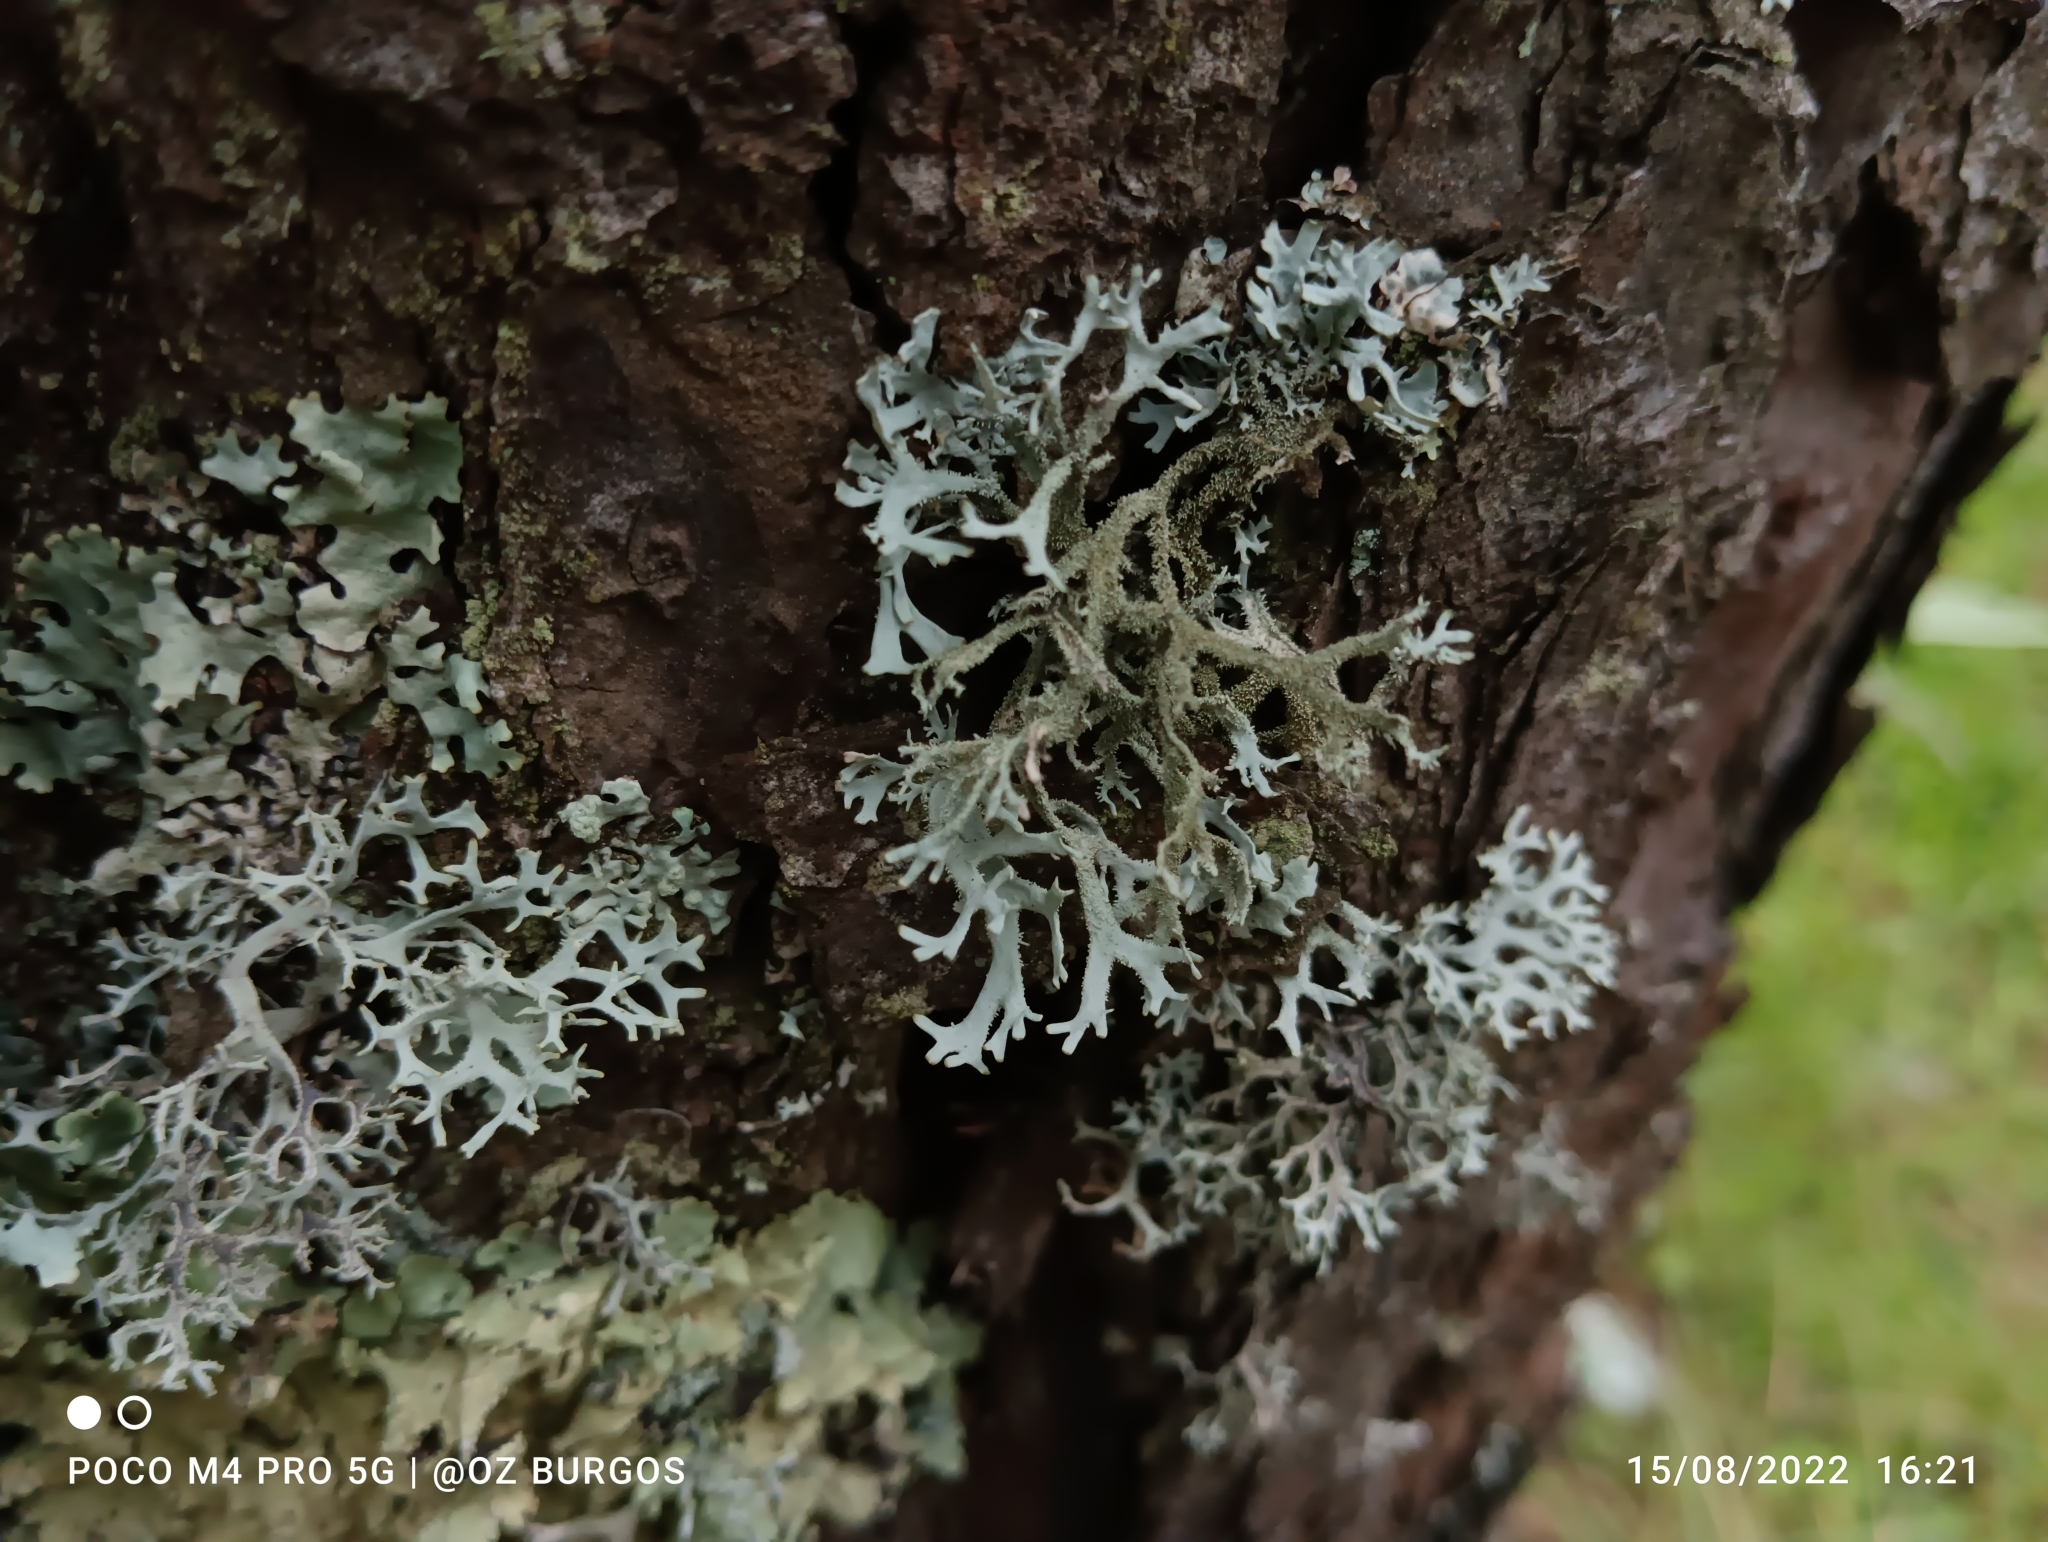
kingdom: Fungi
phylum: Ascomycota
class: Lecanoromycetes
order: Lecanorales
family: Parmeliaceae
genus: Pseudevernia
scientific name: Pseudevernia consocians
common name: Common antler lichen
